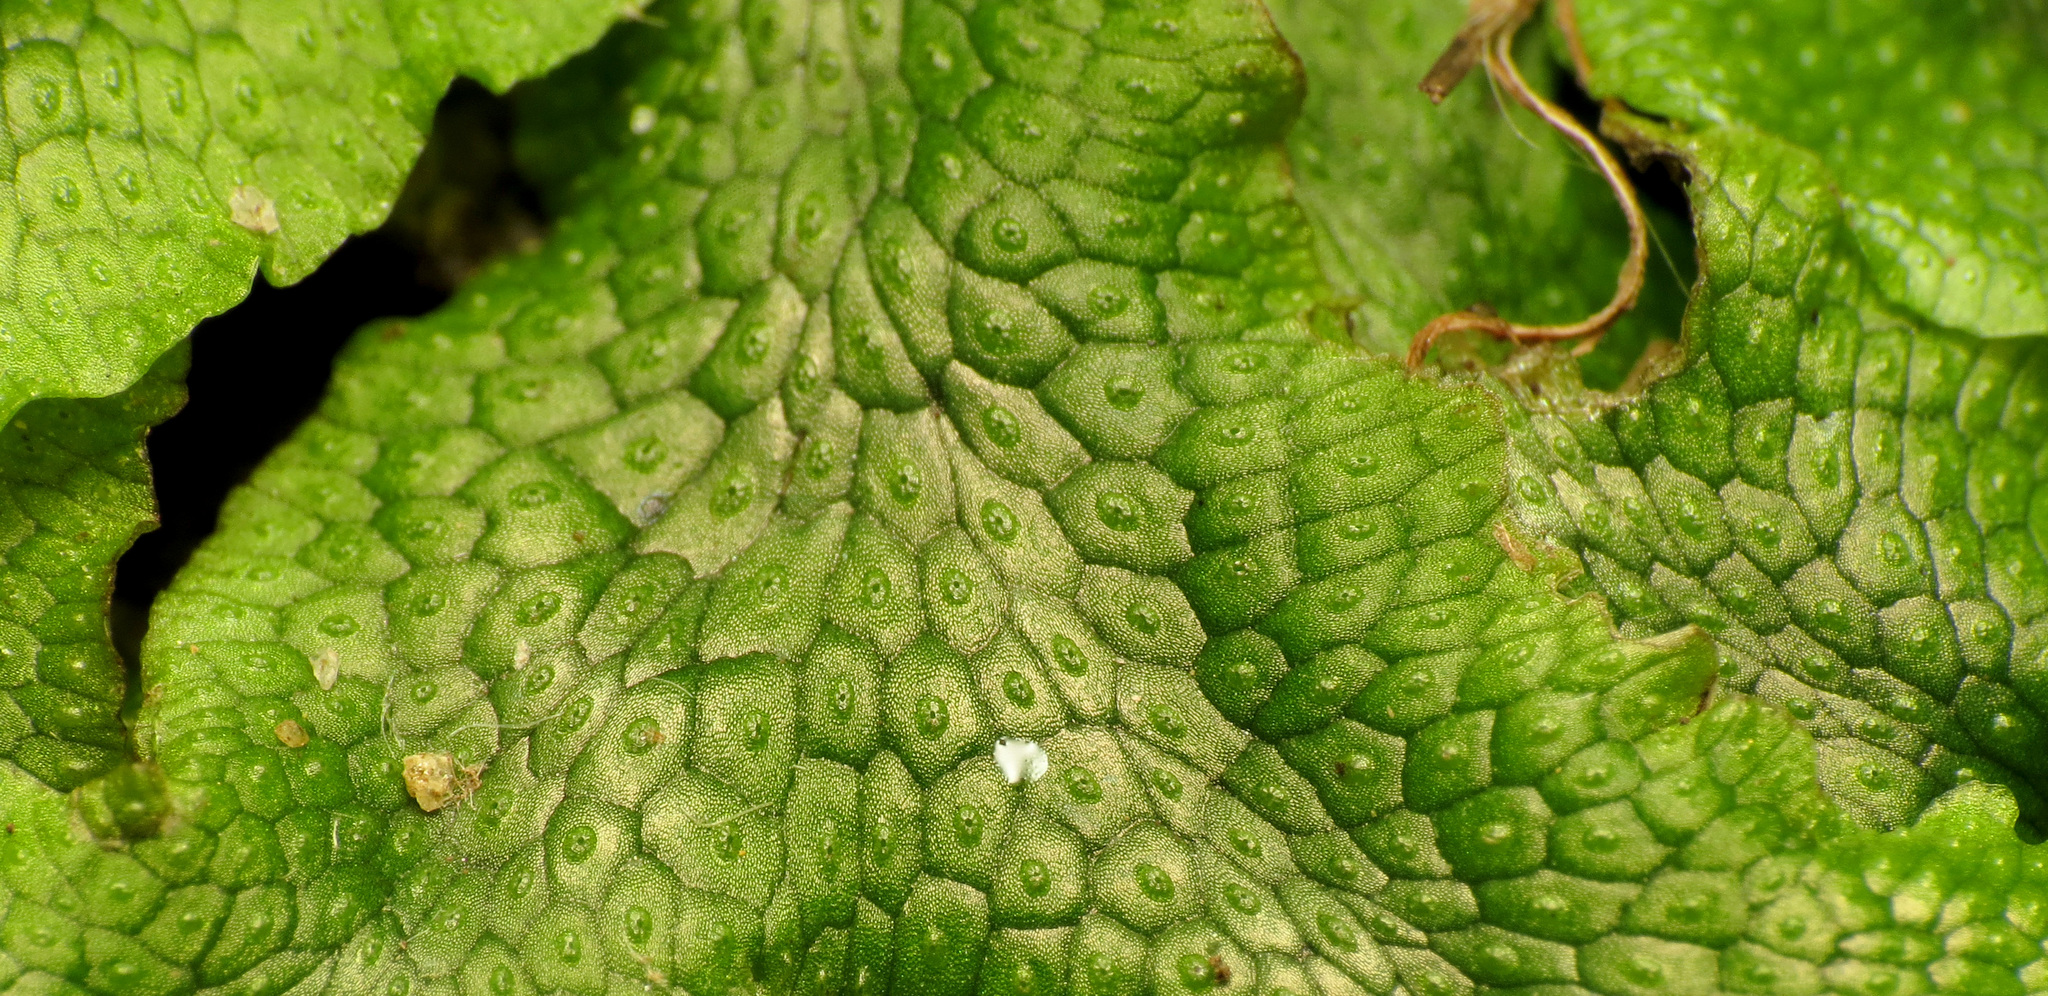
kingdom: Plantae
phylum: Marchantiophyta
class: Marchantiopsida
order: Marchantiales
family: Conocephalaceae
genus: Conocephalum
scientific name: Conocephalum salebrosum
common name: Cat-tongue liverwort
